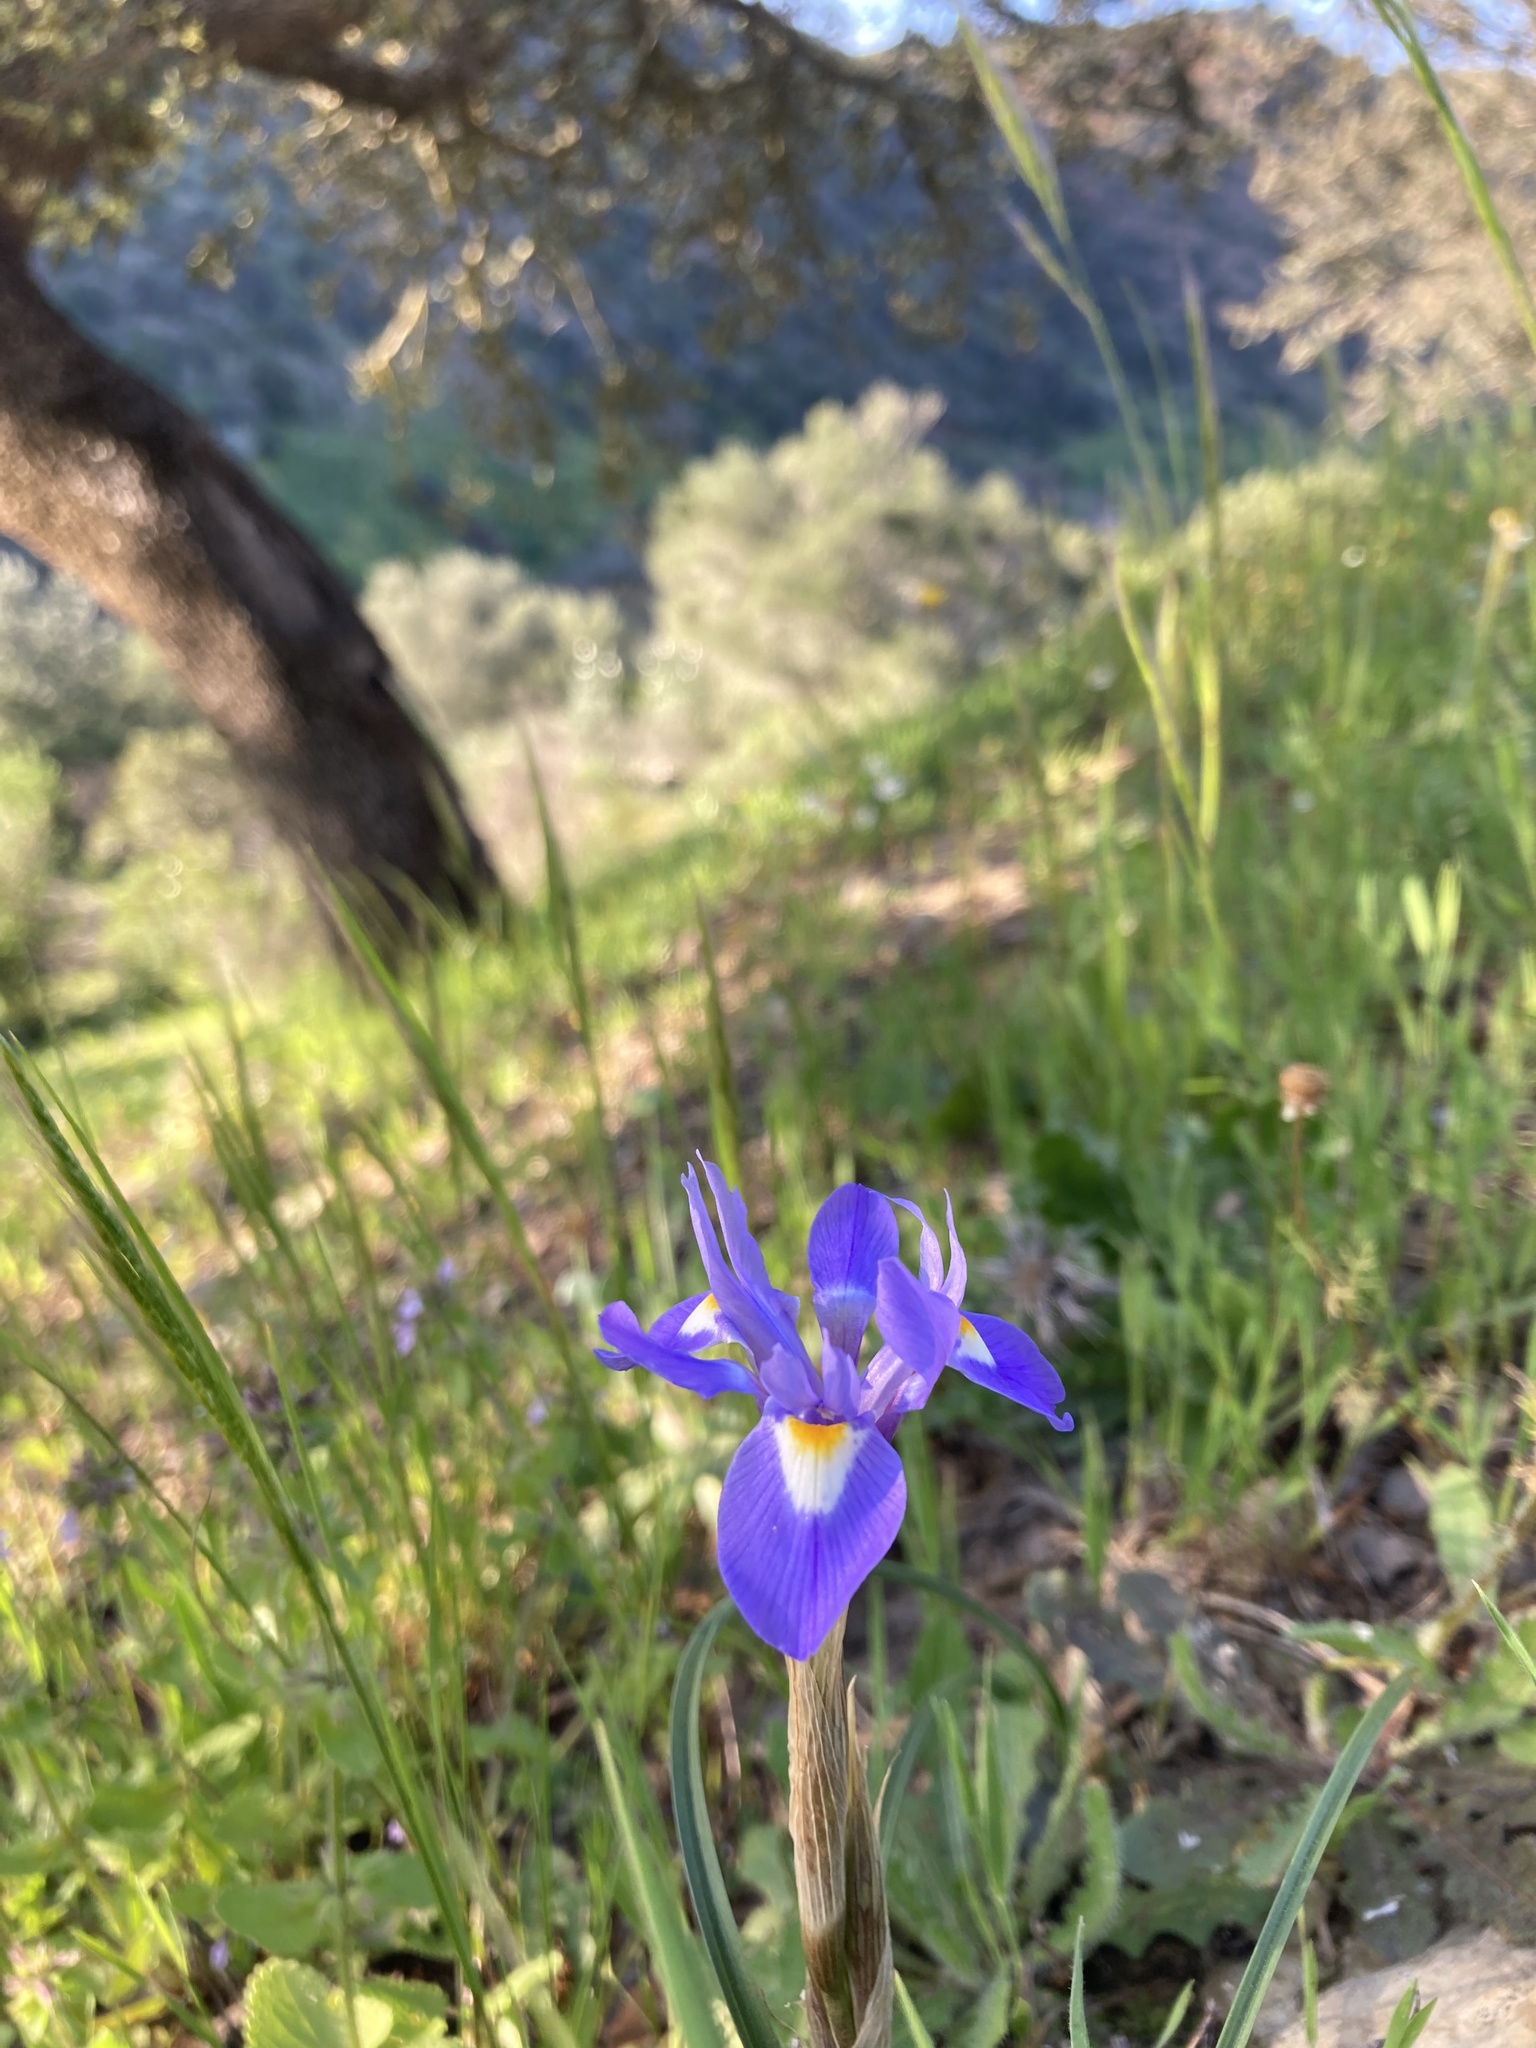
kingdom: Plantae
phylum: Tracheophyta
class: Liliopsida
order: Asparagales
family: Iridaceae
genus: Moraea
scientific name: Moraea sisyrinchium
